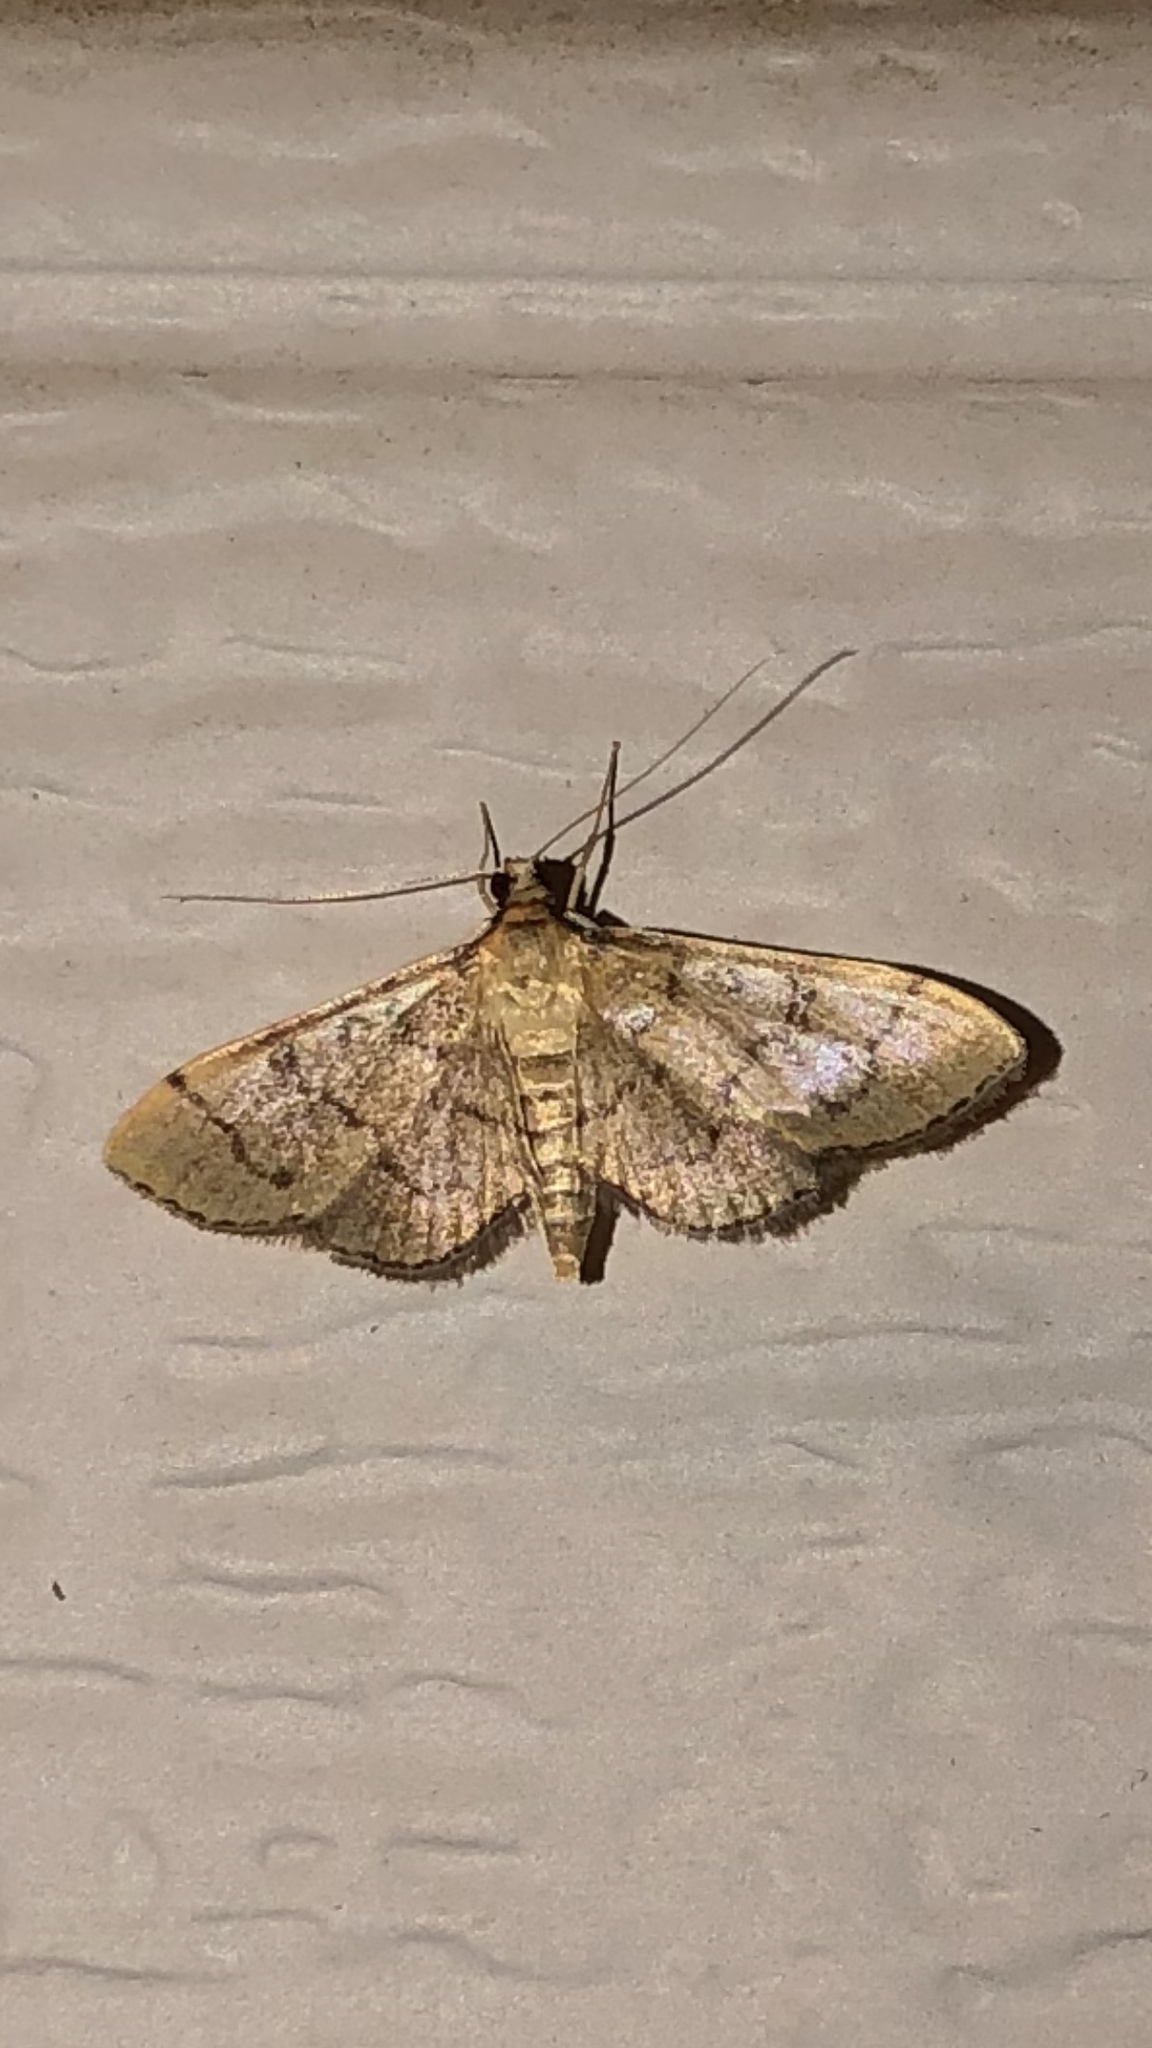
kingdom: Animalia
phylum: Arthropoda
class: Insecta
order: Lepidoptera
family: Crambidae
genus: Lamprosema
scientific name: Lamprosema Blepharomastix ranalis
